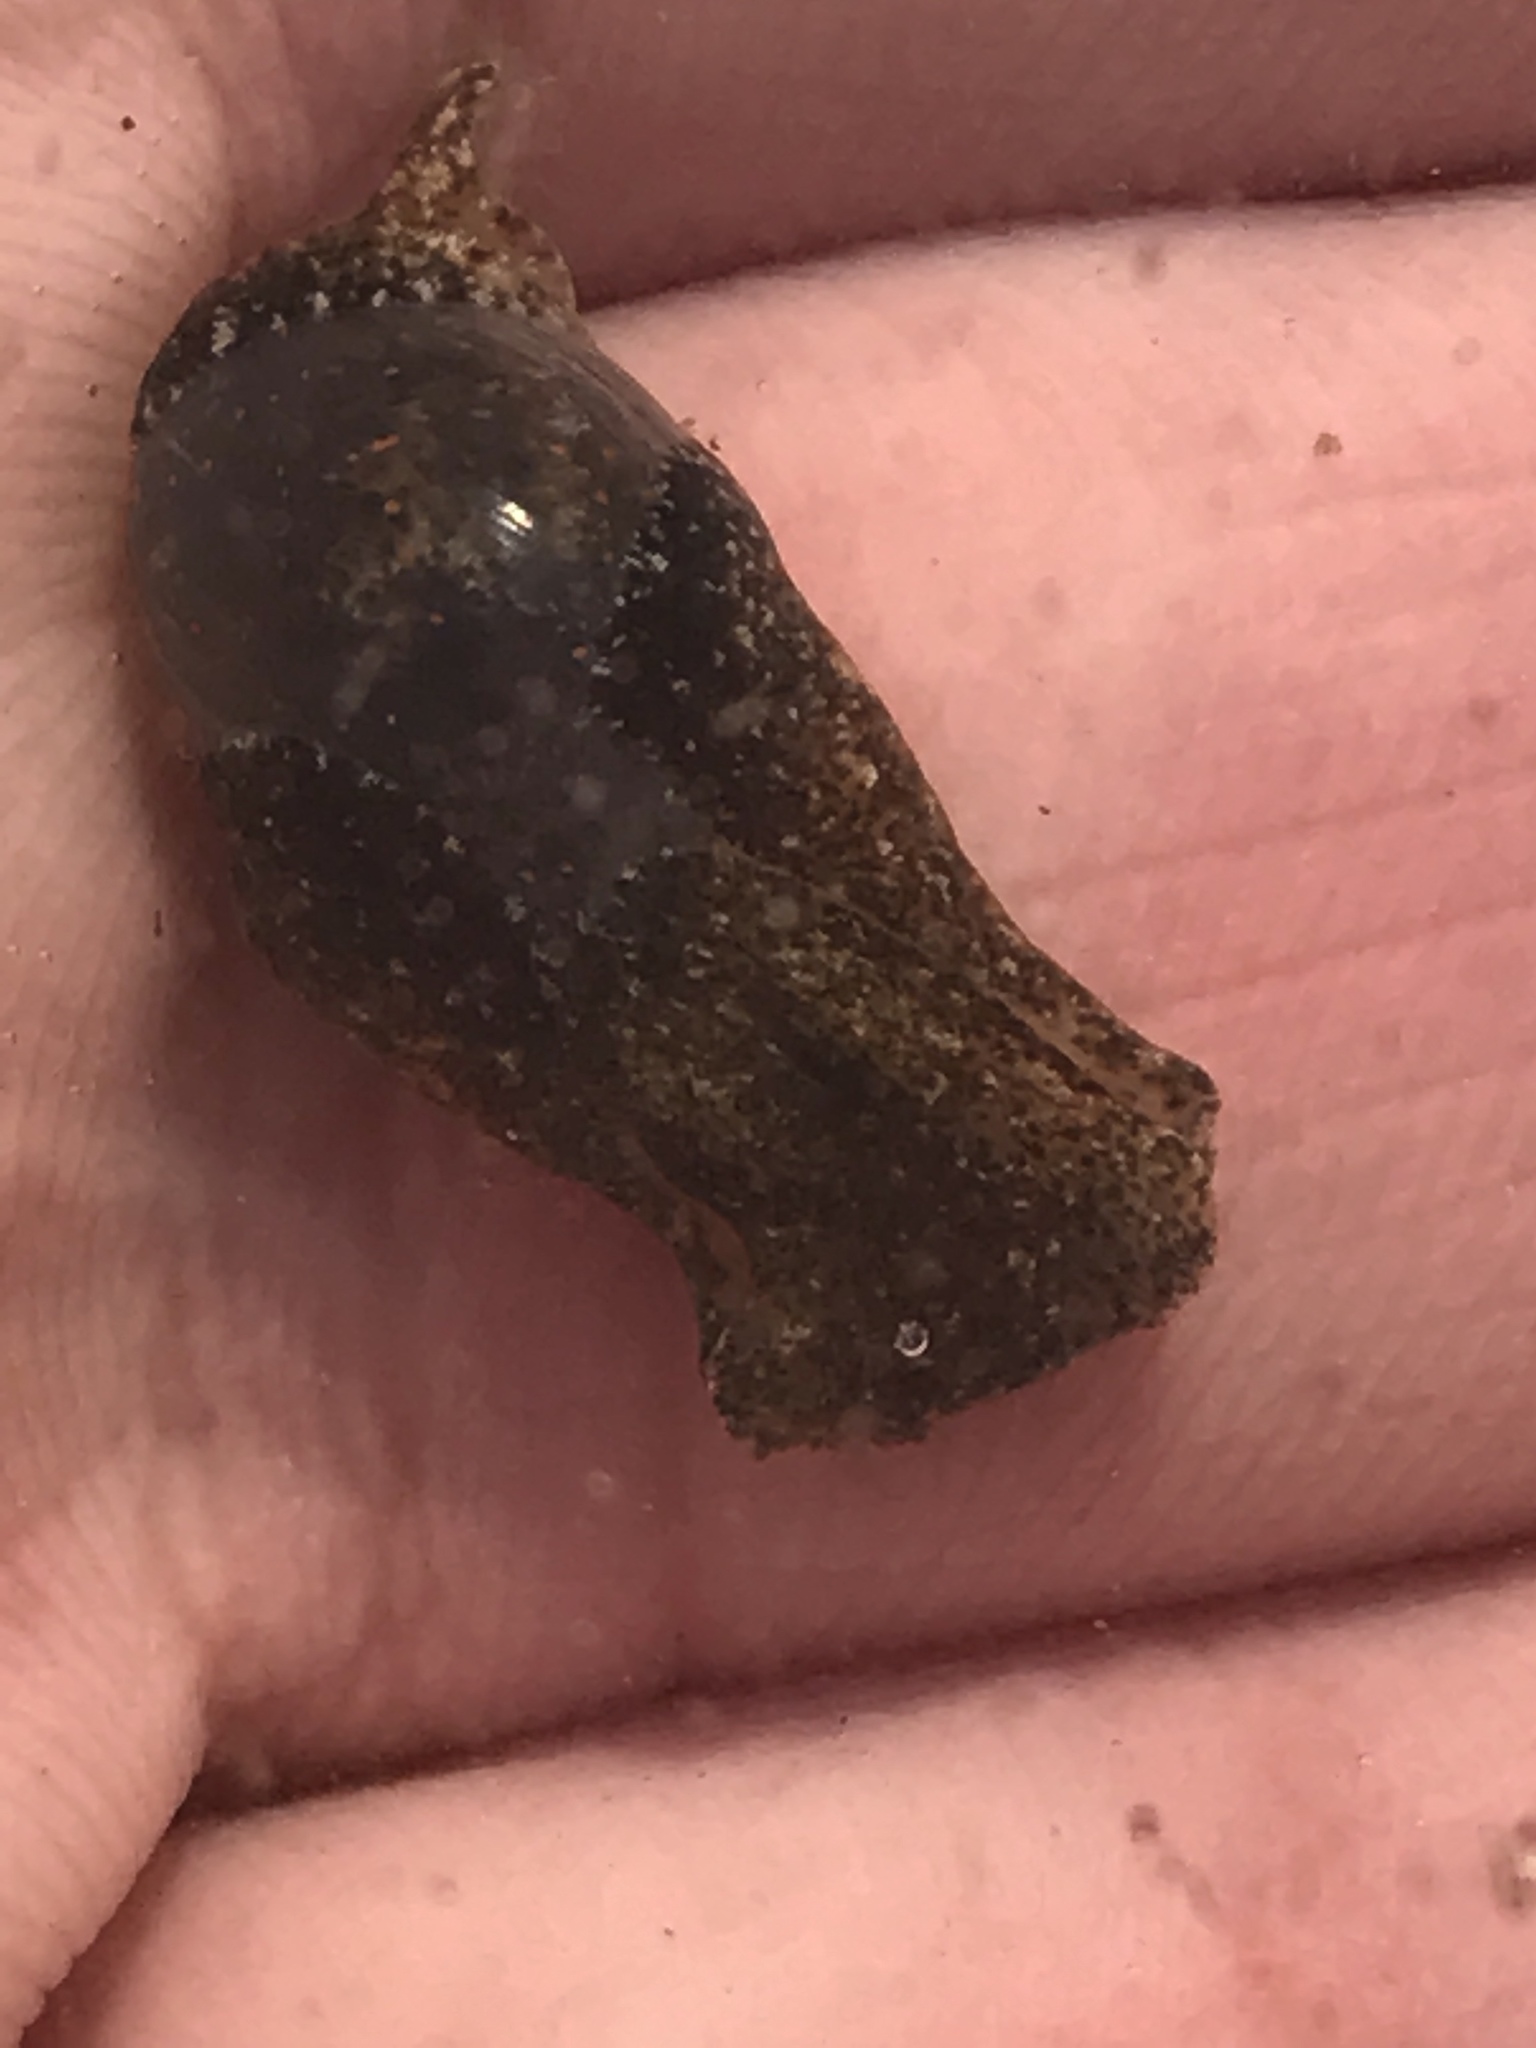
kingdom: Animalia
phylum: Mollusca
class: Gastropoda
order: Cephalaspidea
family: Haminoeidae
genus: Haloa
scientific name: Haloa japonica
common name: Japanese bubble snail
